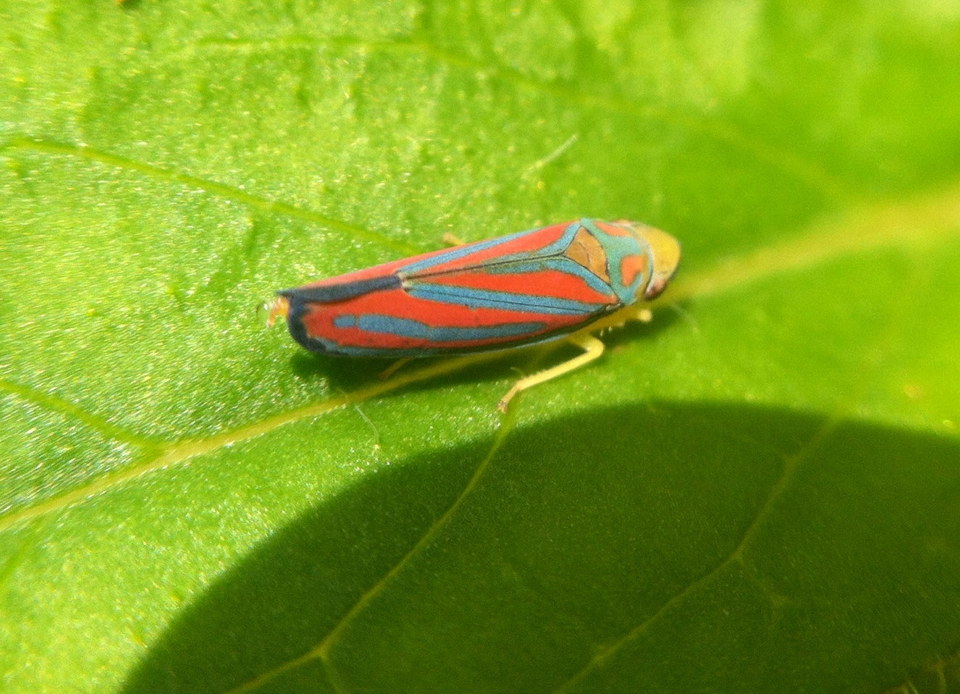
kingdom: Animalia
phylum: Arthropoda
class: Insecta
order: Hemiptera
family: Cicadellidae
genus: Graphocephala
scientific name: Graphocephala coccinea
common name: Candy-striped leafhopper
